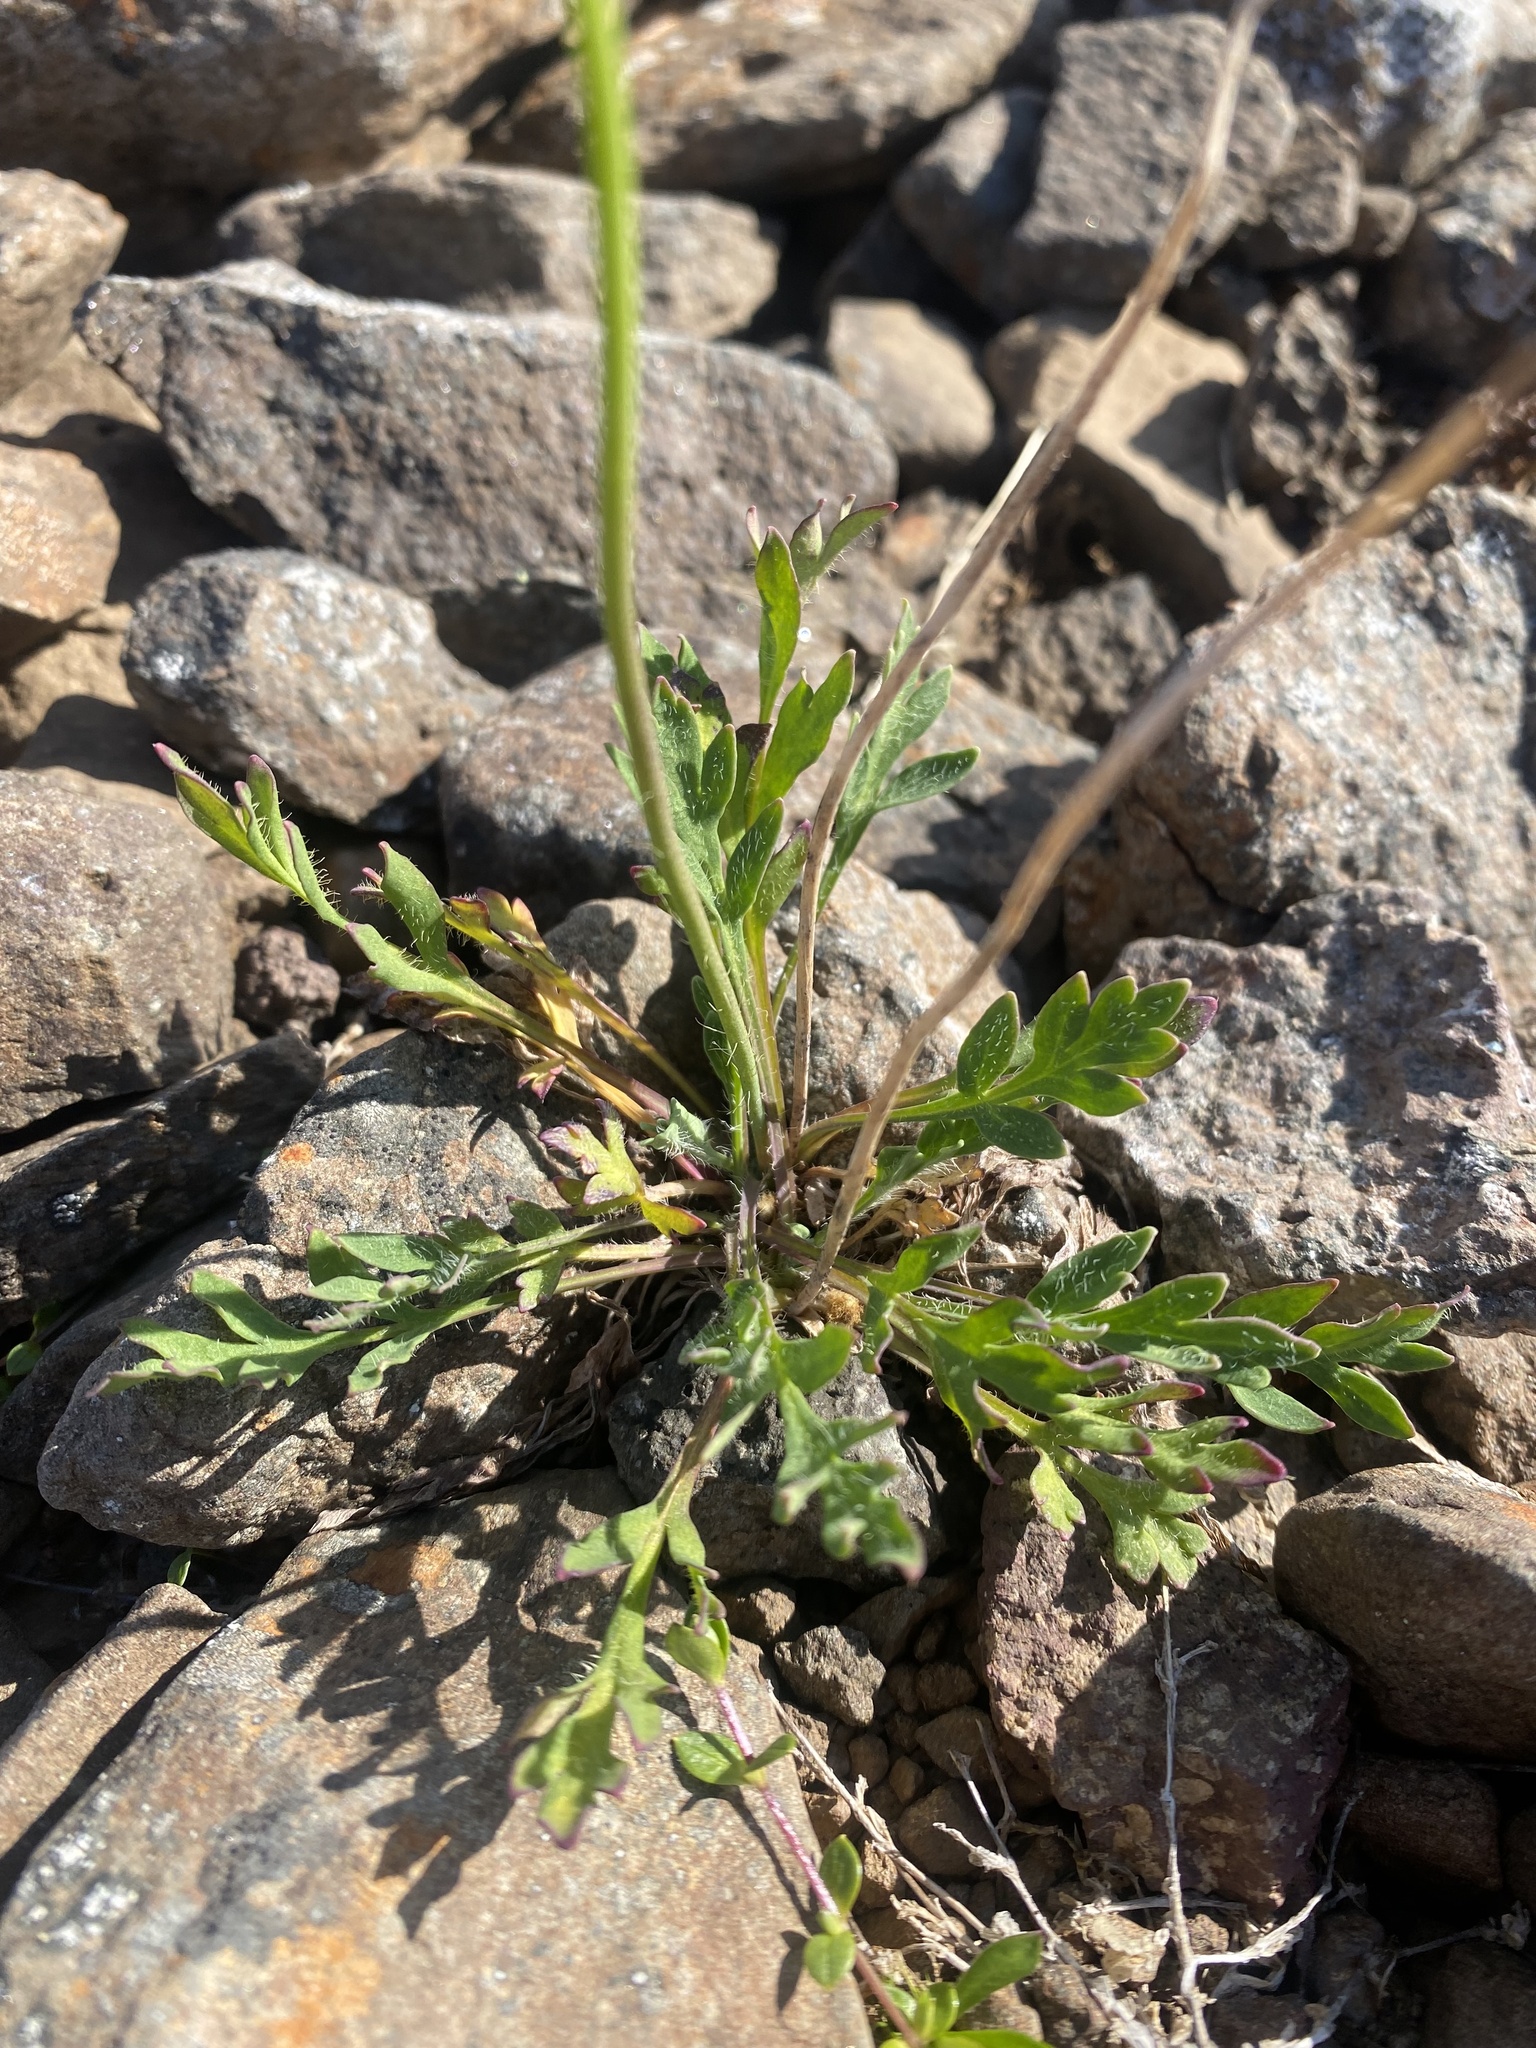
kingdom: Plantae
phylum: Tracheophyta
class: Magnoliopsida
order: Ranunculales
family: Papaveraceae
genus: Papaver
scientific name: Papaver pulvinatum
